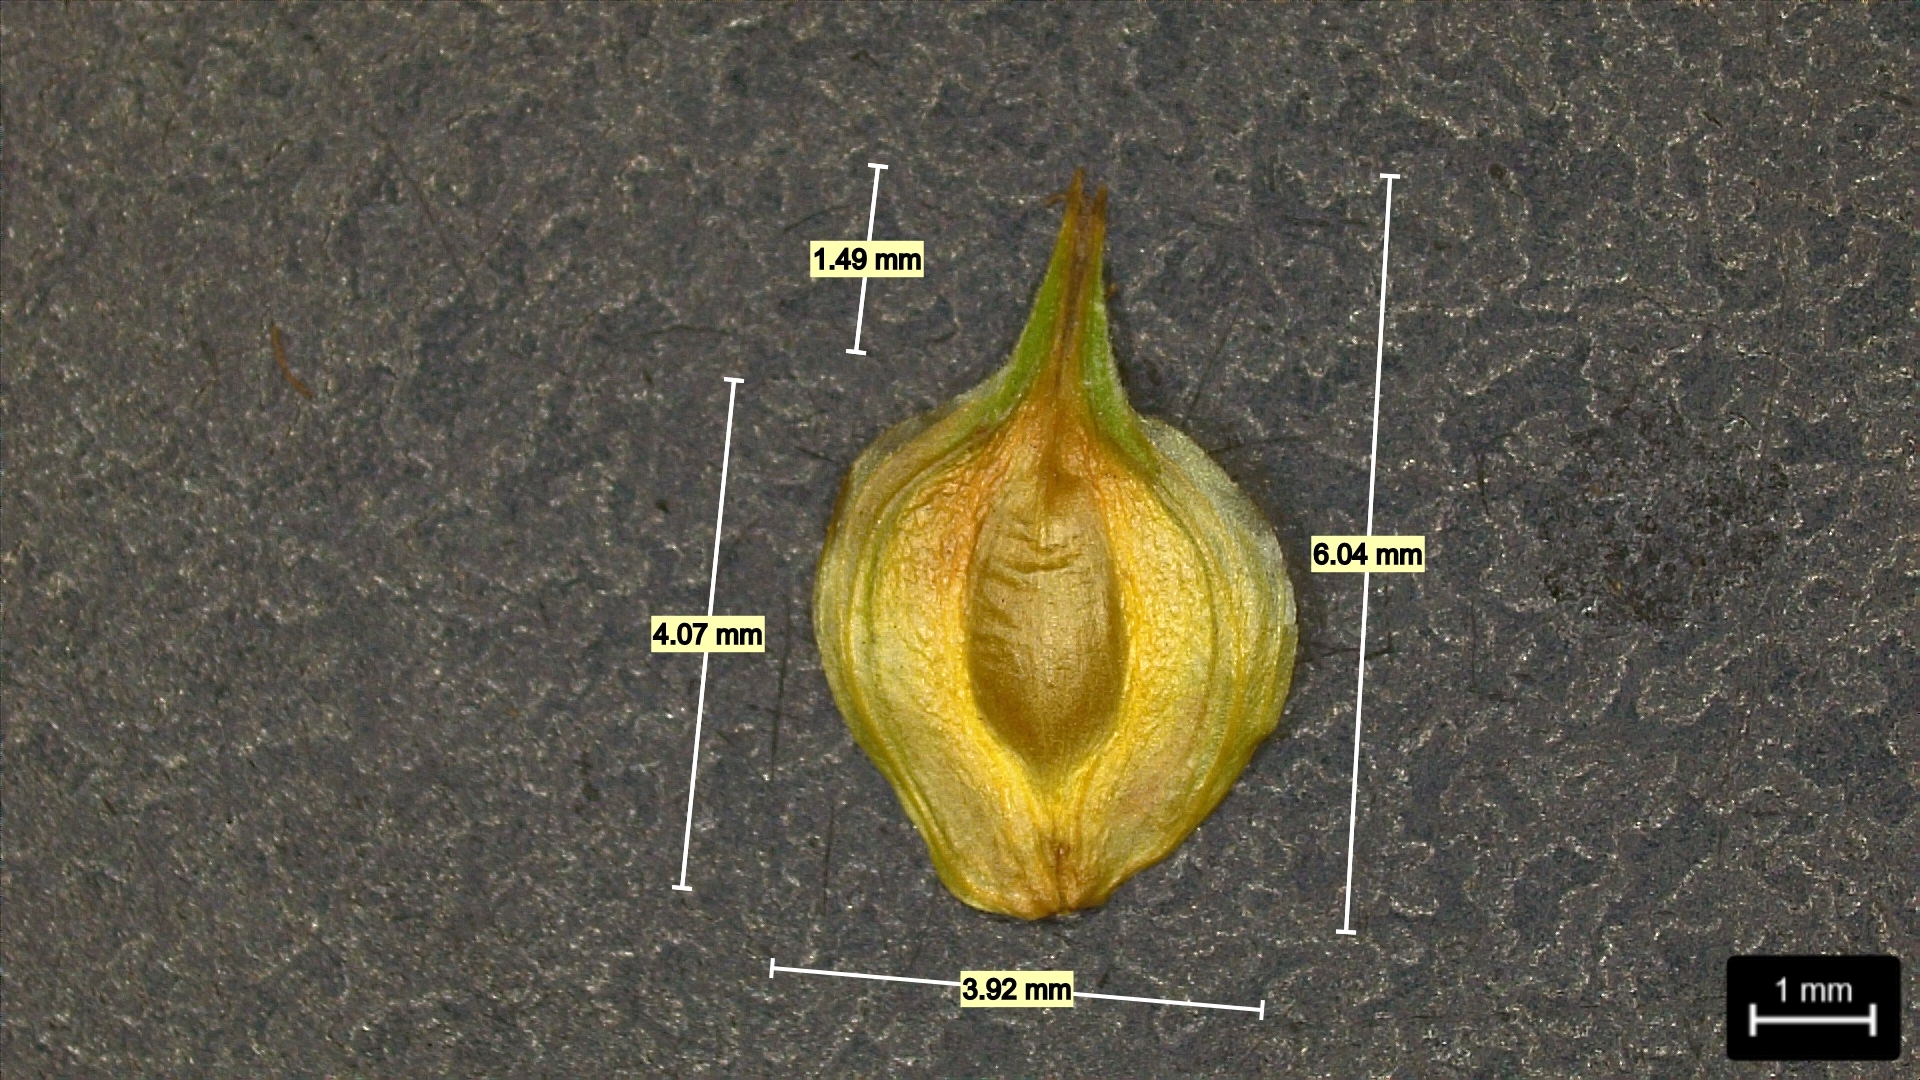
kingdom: Plantae
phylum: Tracheophyta
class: Liliopsida
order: Poales
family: Cyperaceae
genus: Carex
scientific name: Carex tetrastachya
